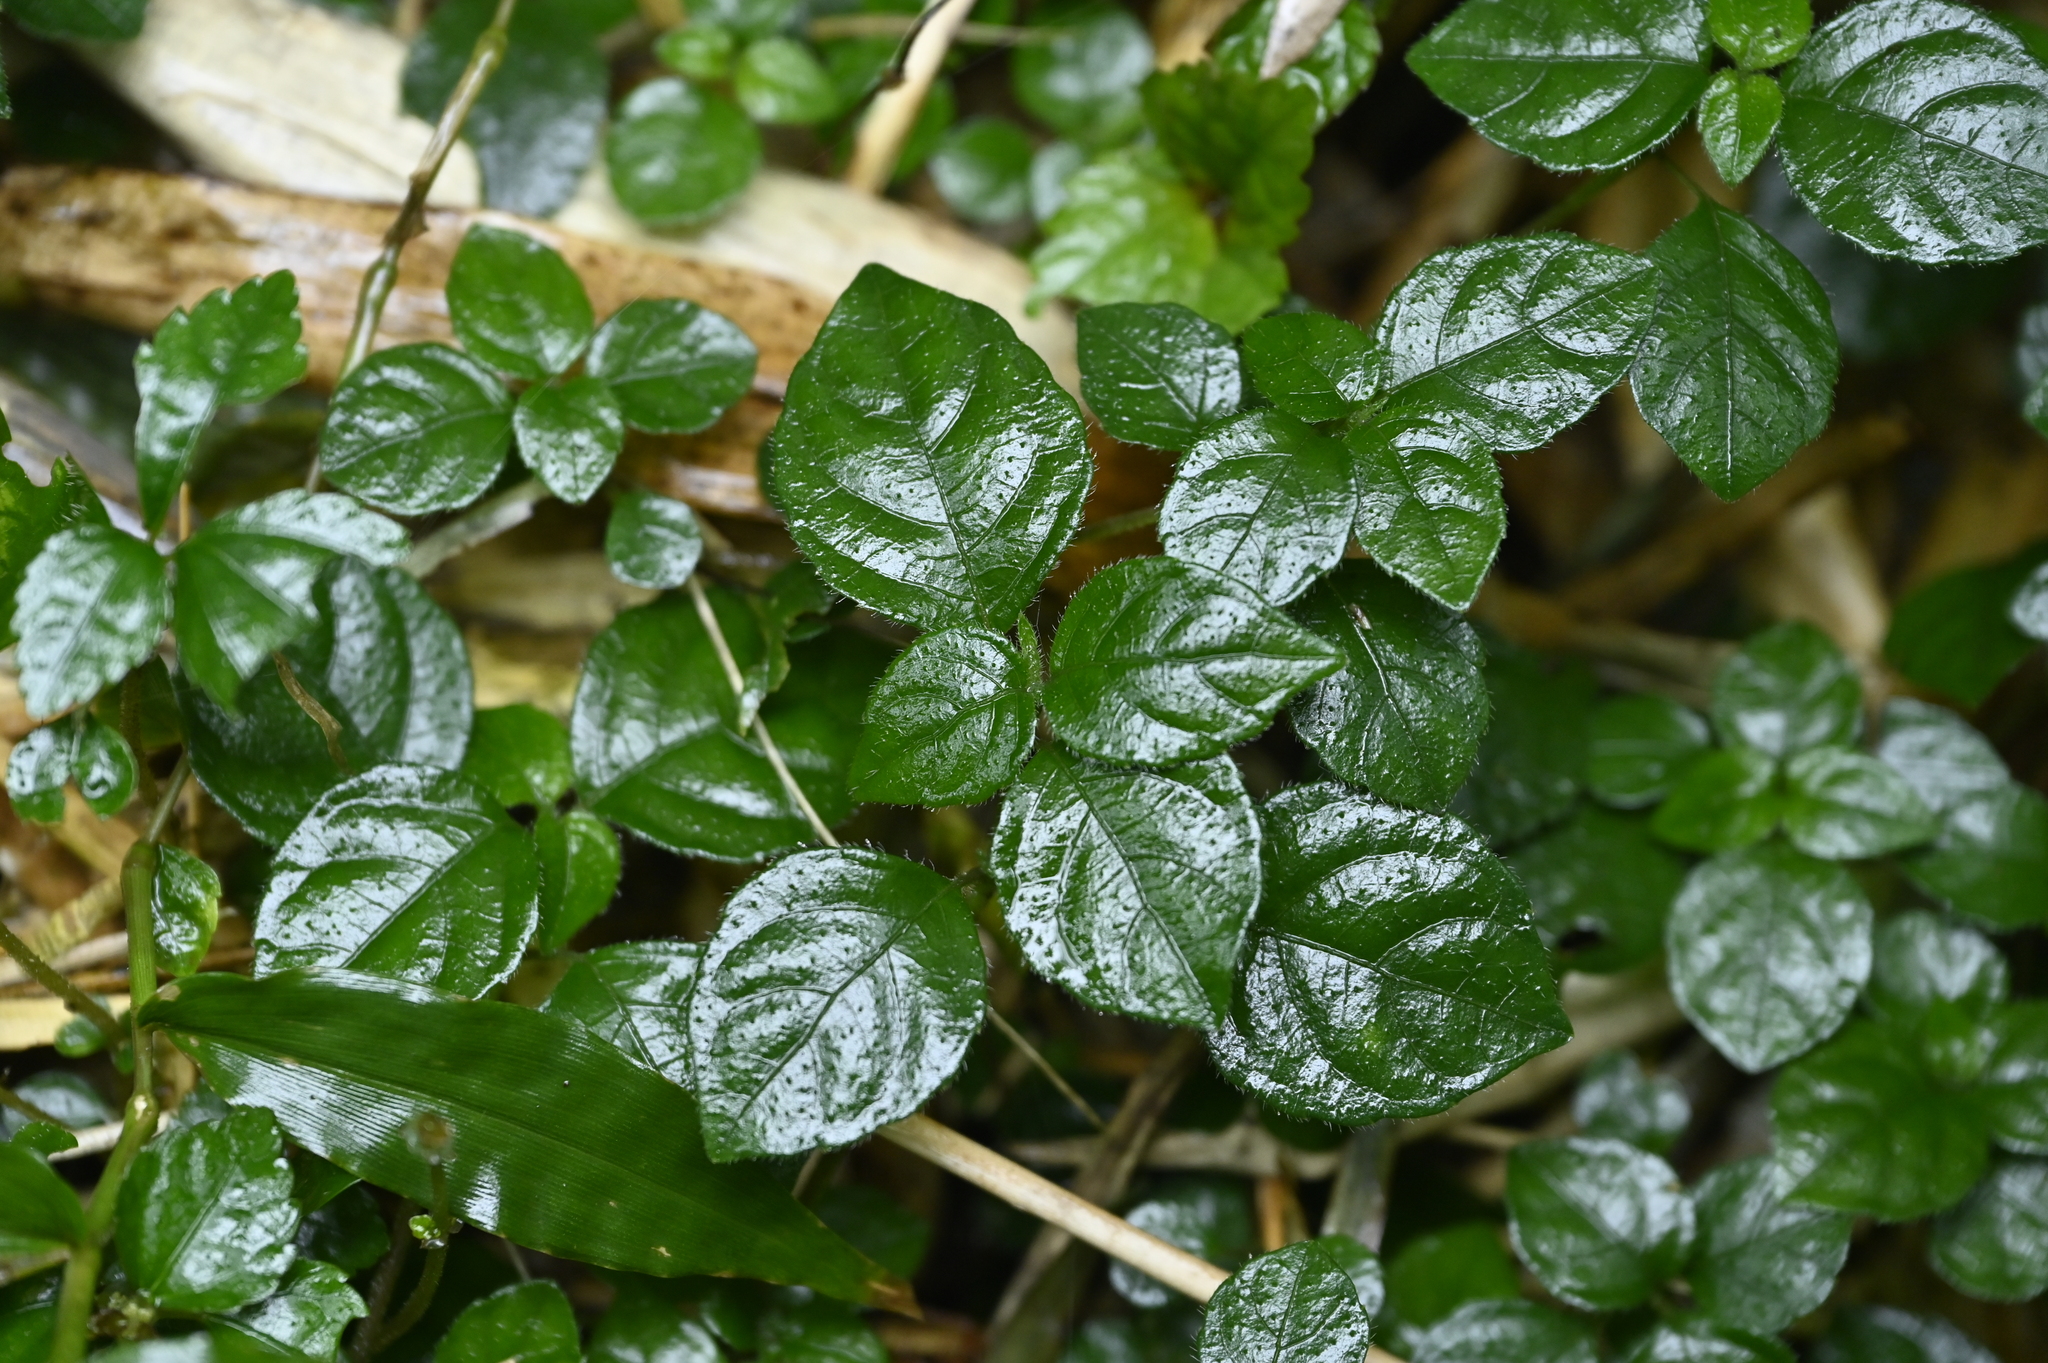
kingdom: Plantae
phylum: Tracheophyta
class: Magnoliopsida
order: Lamiales
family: Acanthaceae
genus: Strobilanthes
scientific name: Strobilanthes rankanensis
